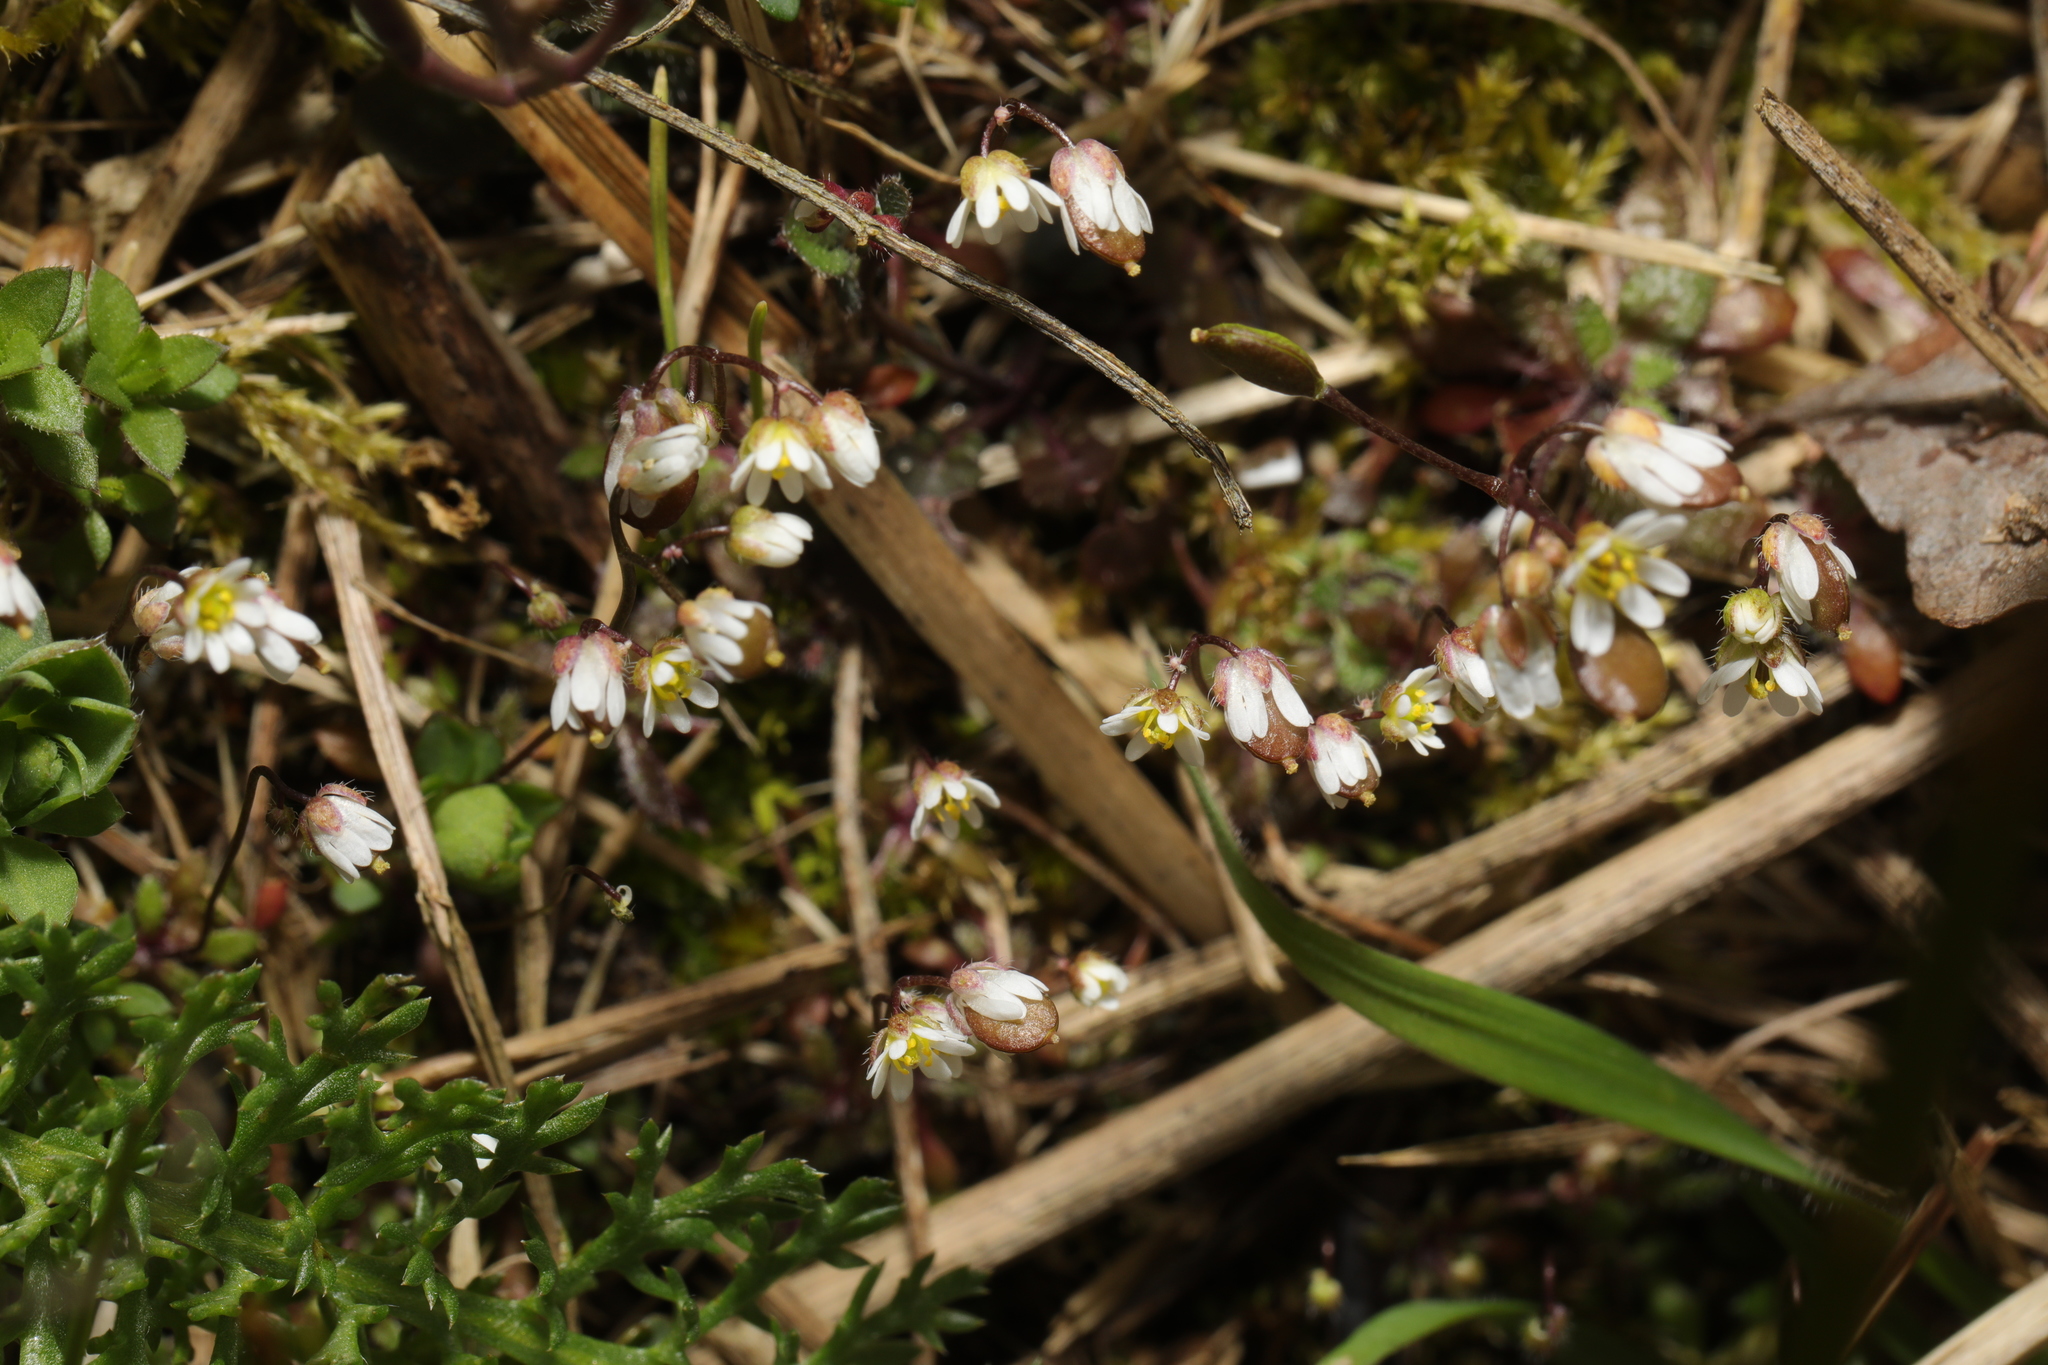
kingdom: Plantae
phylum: Tracheophyta
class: Magnoliopsida
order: Brassicales
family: Brassicaceae
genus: Draba
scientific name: Draba verna
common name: Spring draba
